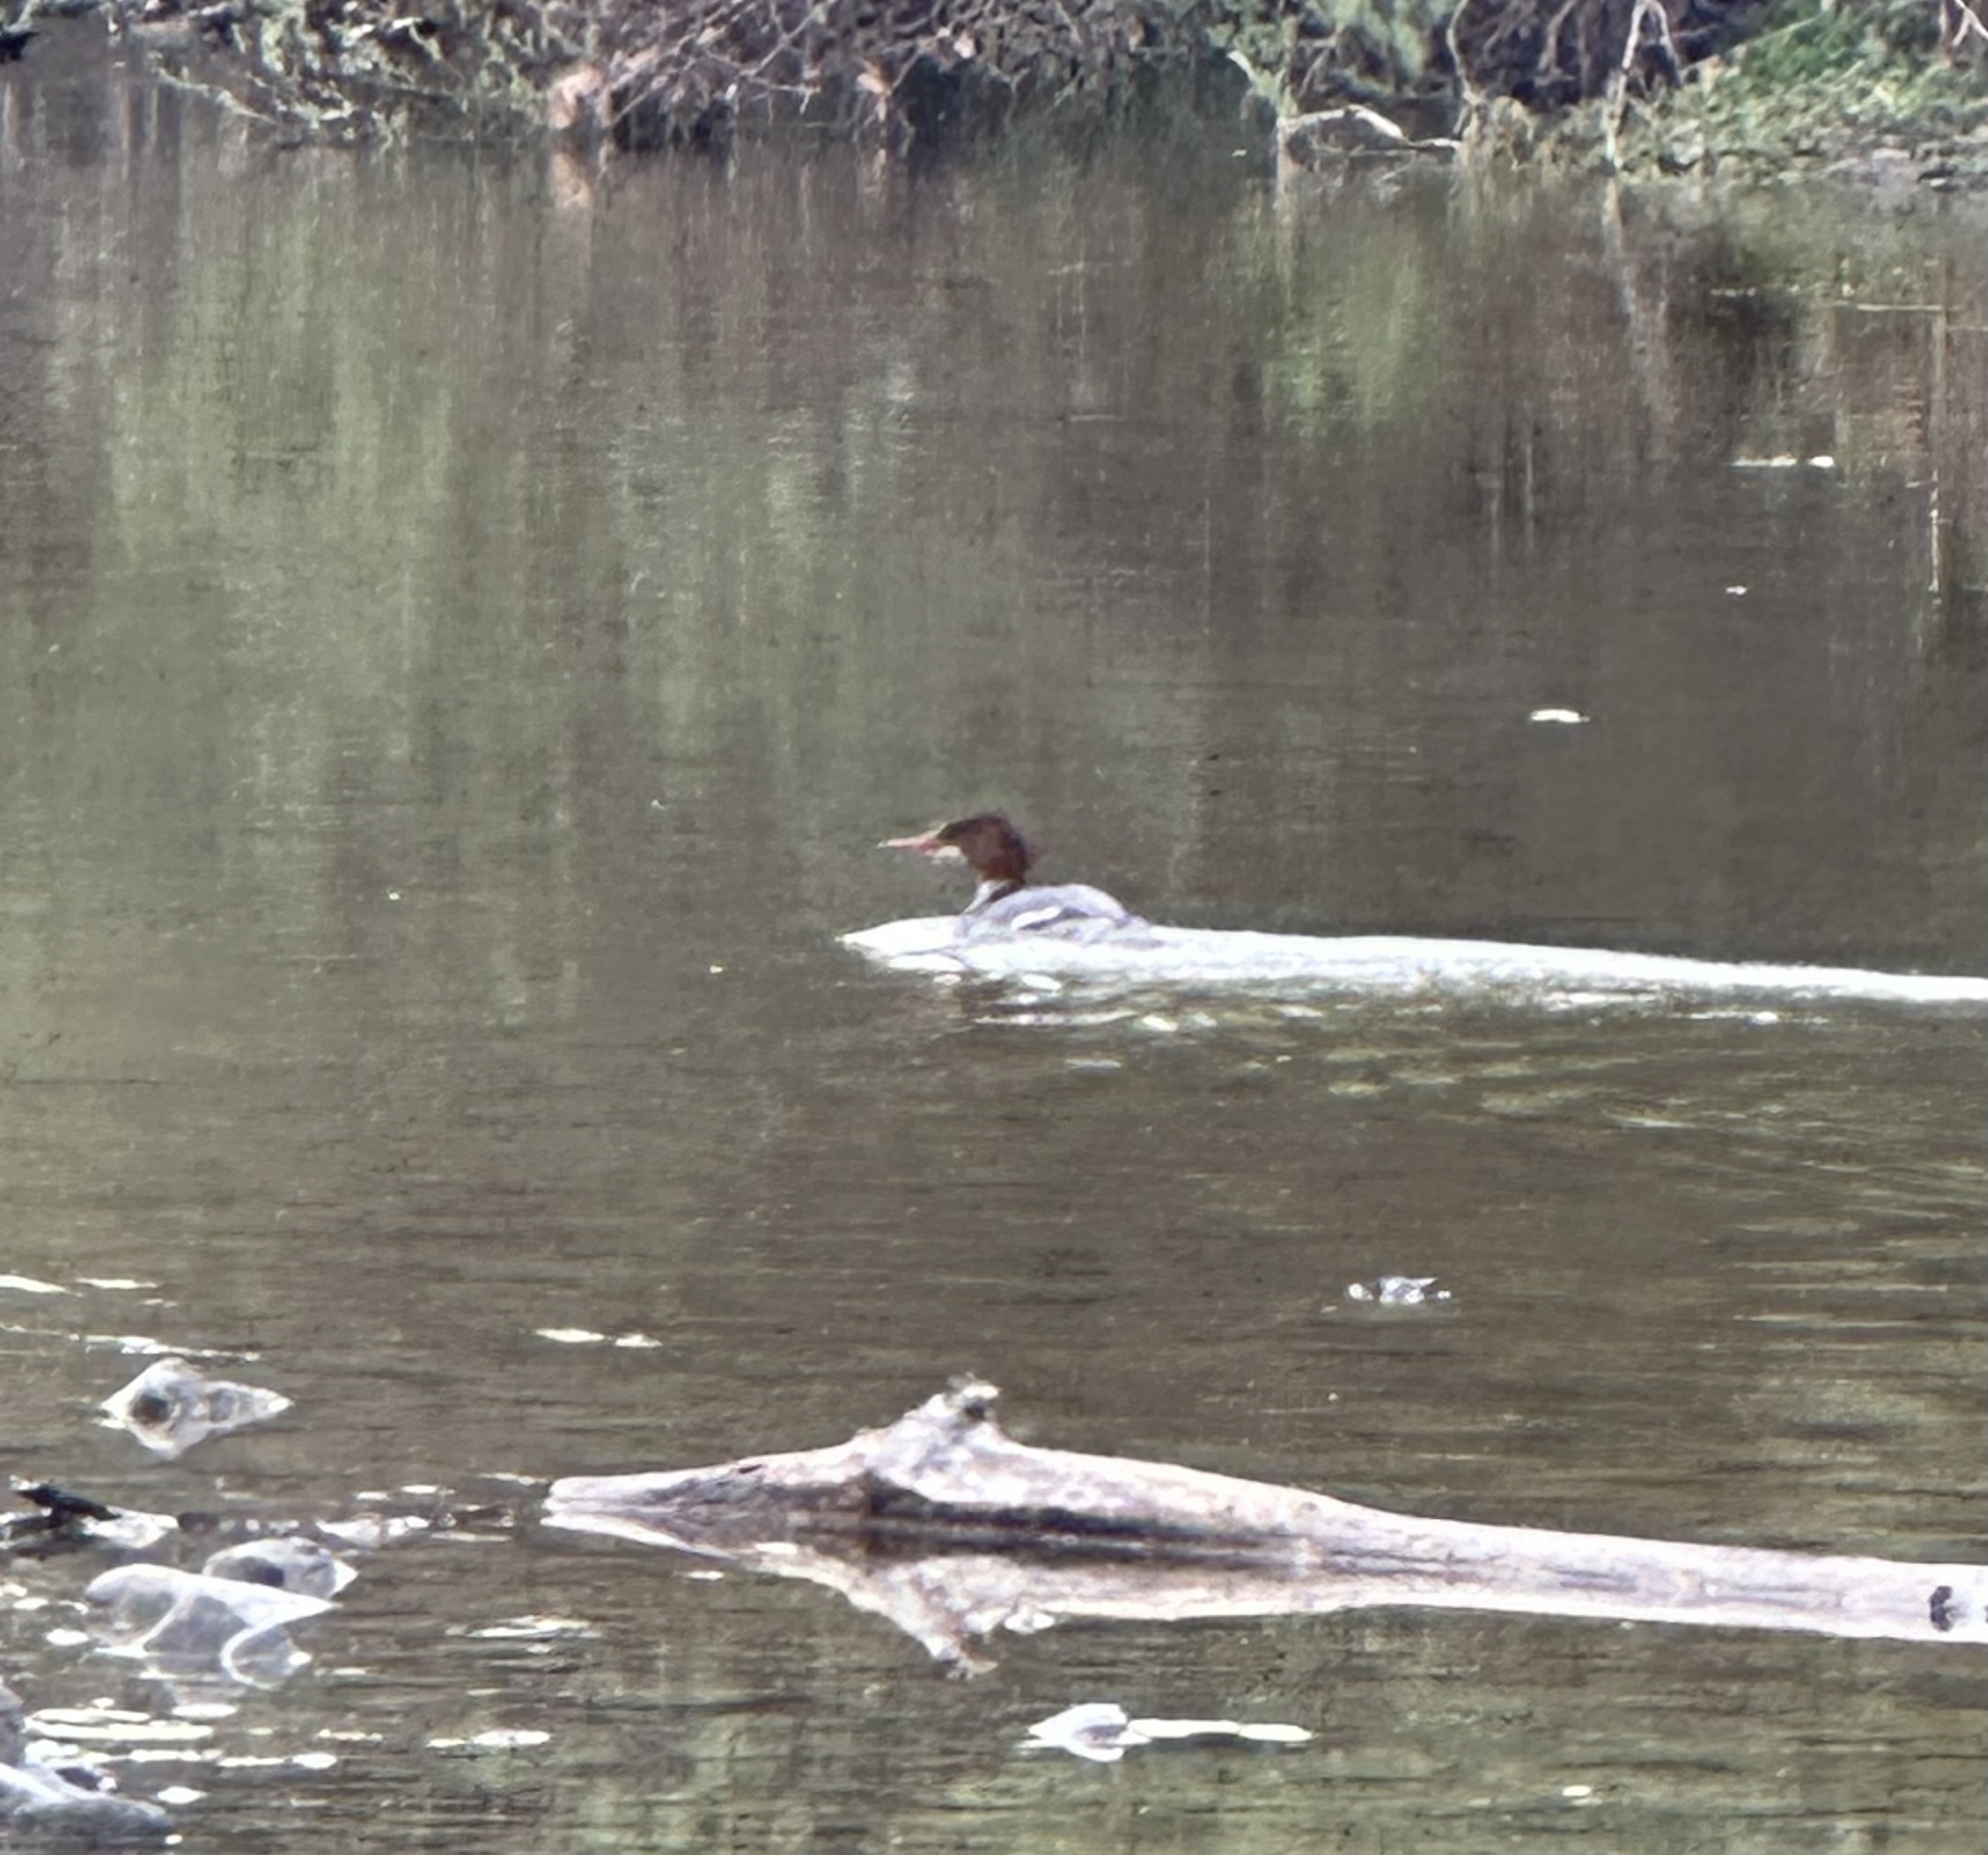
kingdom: Animalia
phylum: Chordata
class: Aves
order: Anseriformes
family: Anatidae
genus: Mergus
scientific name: Mergus merganser
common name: Common merganser
